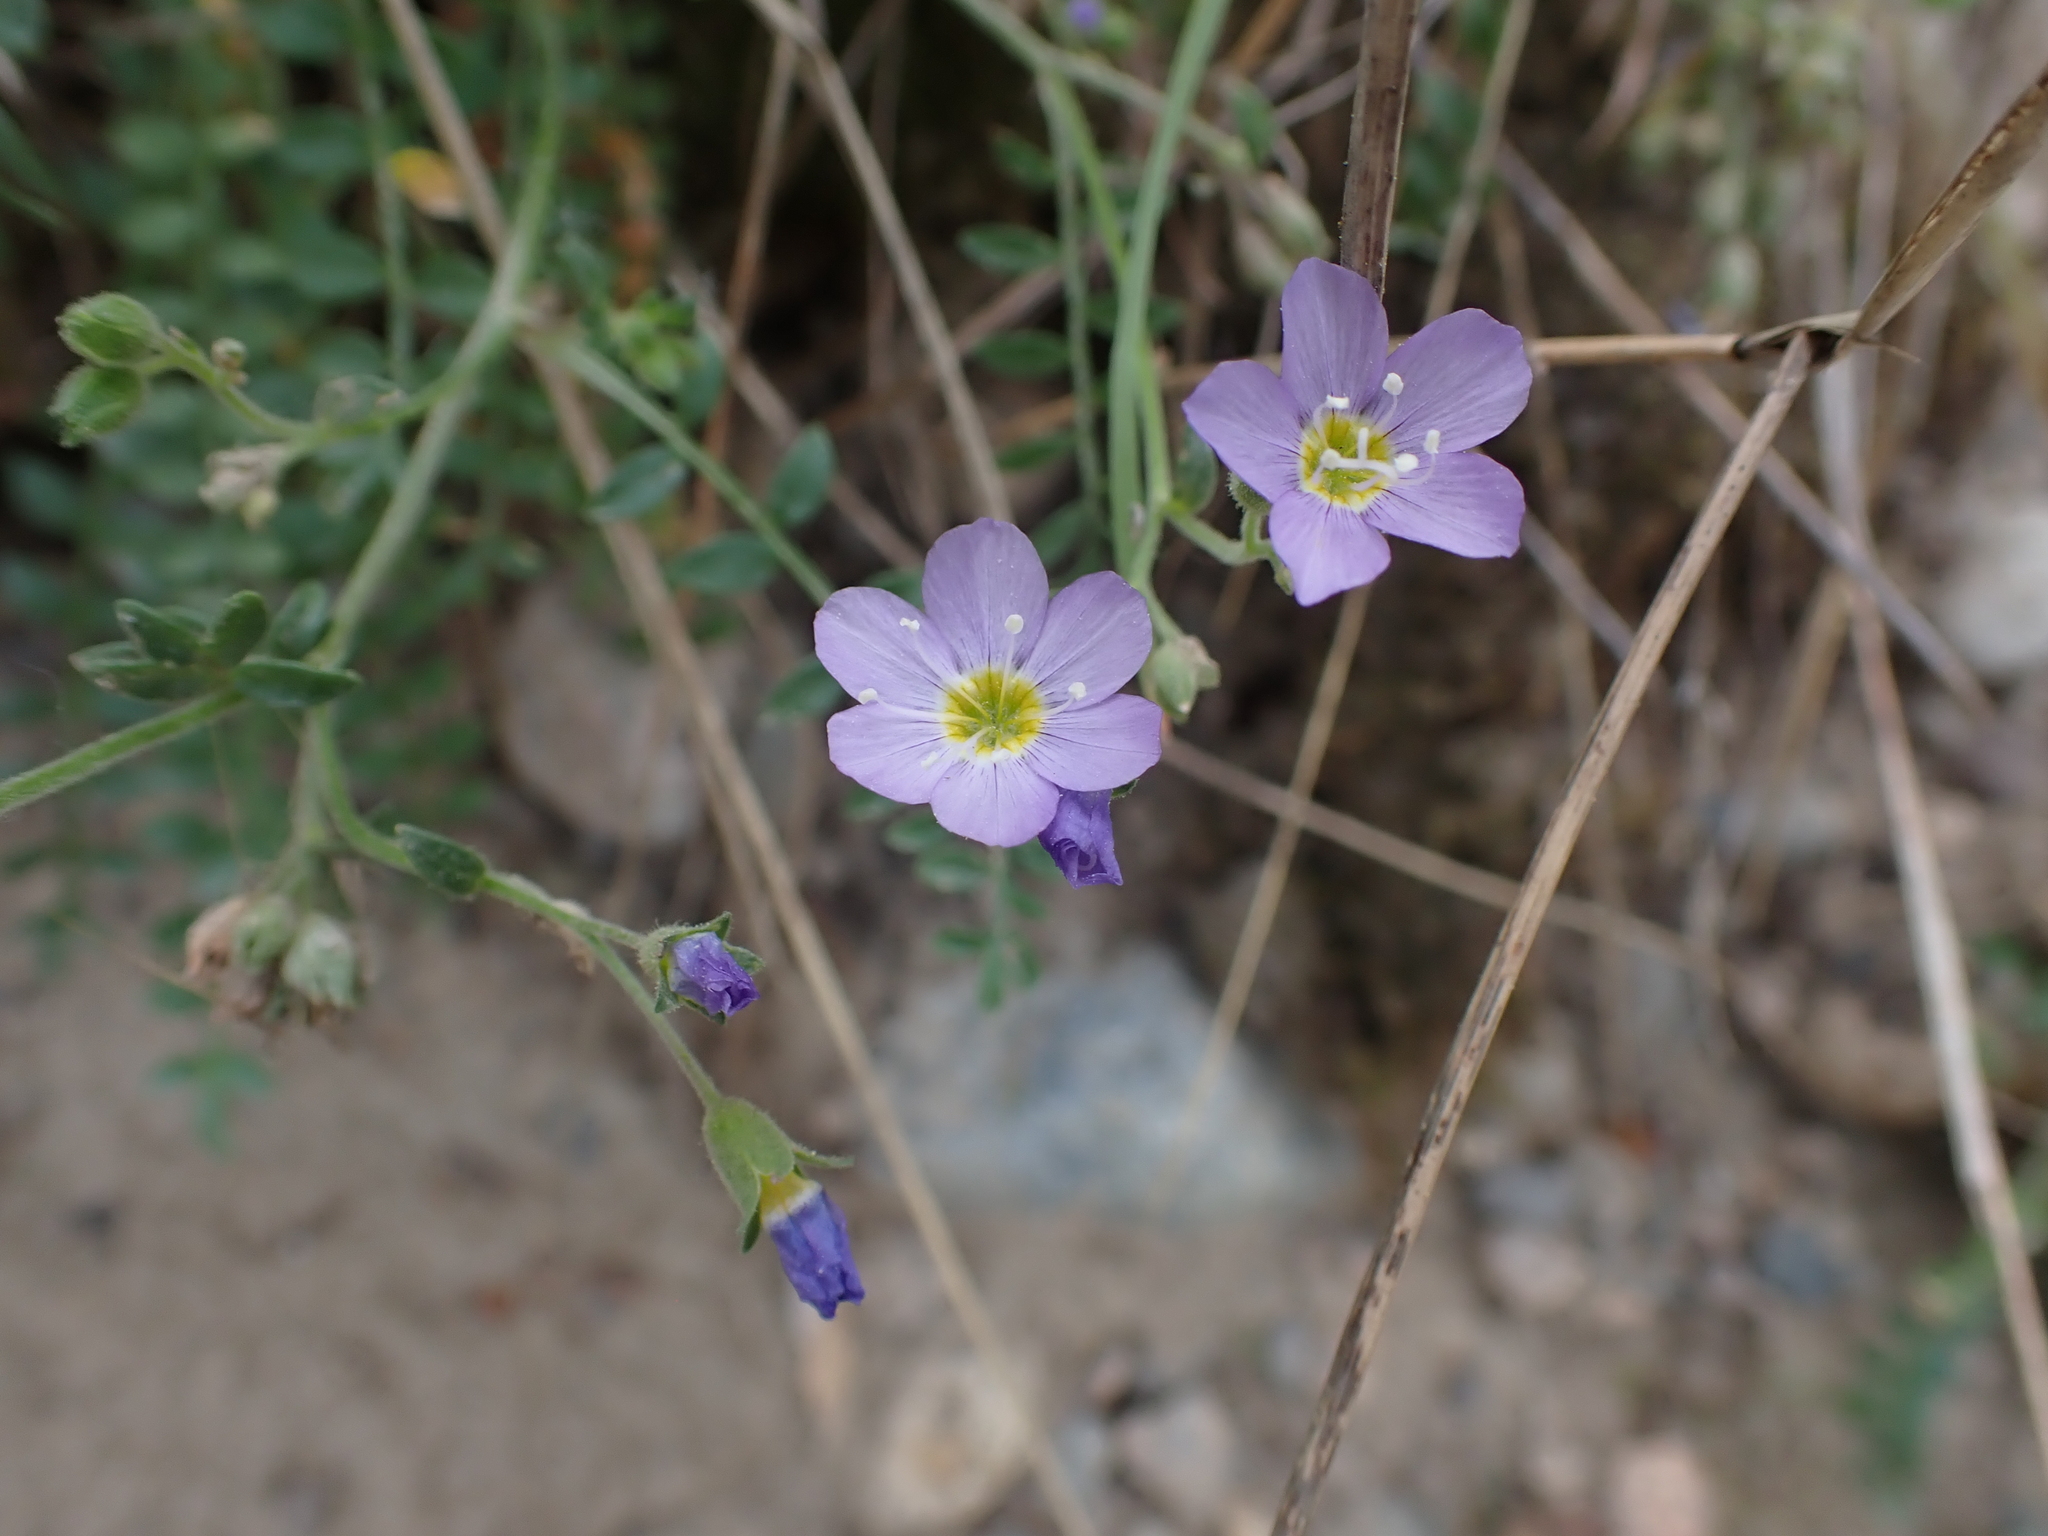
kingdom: Plantae
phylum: Tracheophyta
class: Magnoliopsida
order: Ericales
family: Polemoniaceae
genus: Polemonium
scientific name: Polemonium pulcherrimum
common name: Short jacob's-ladder
